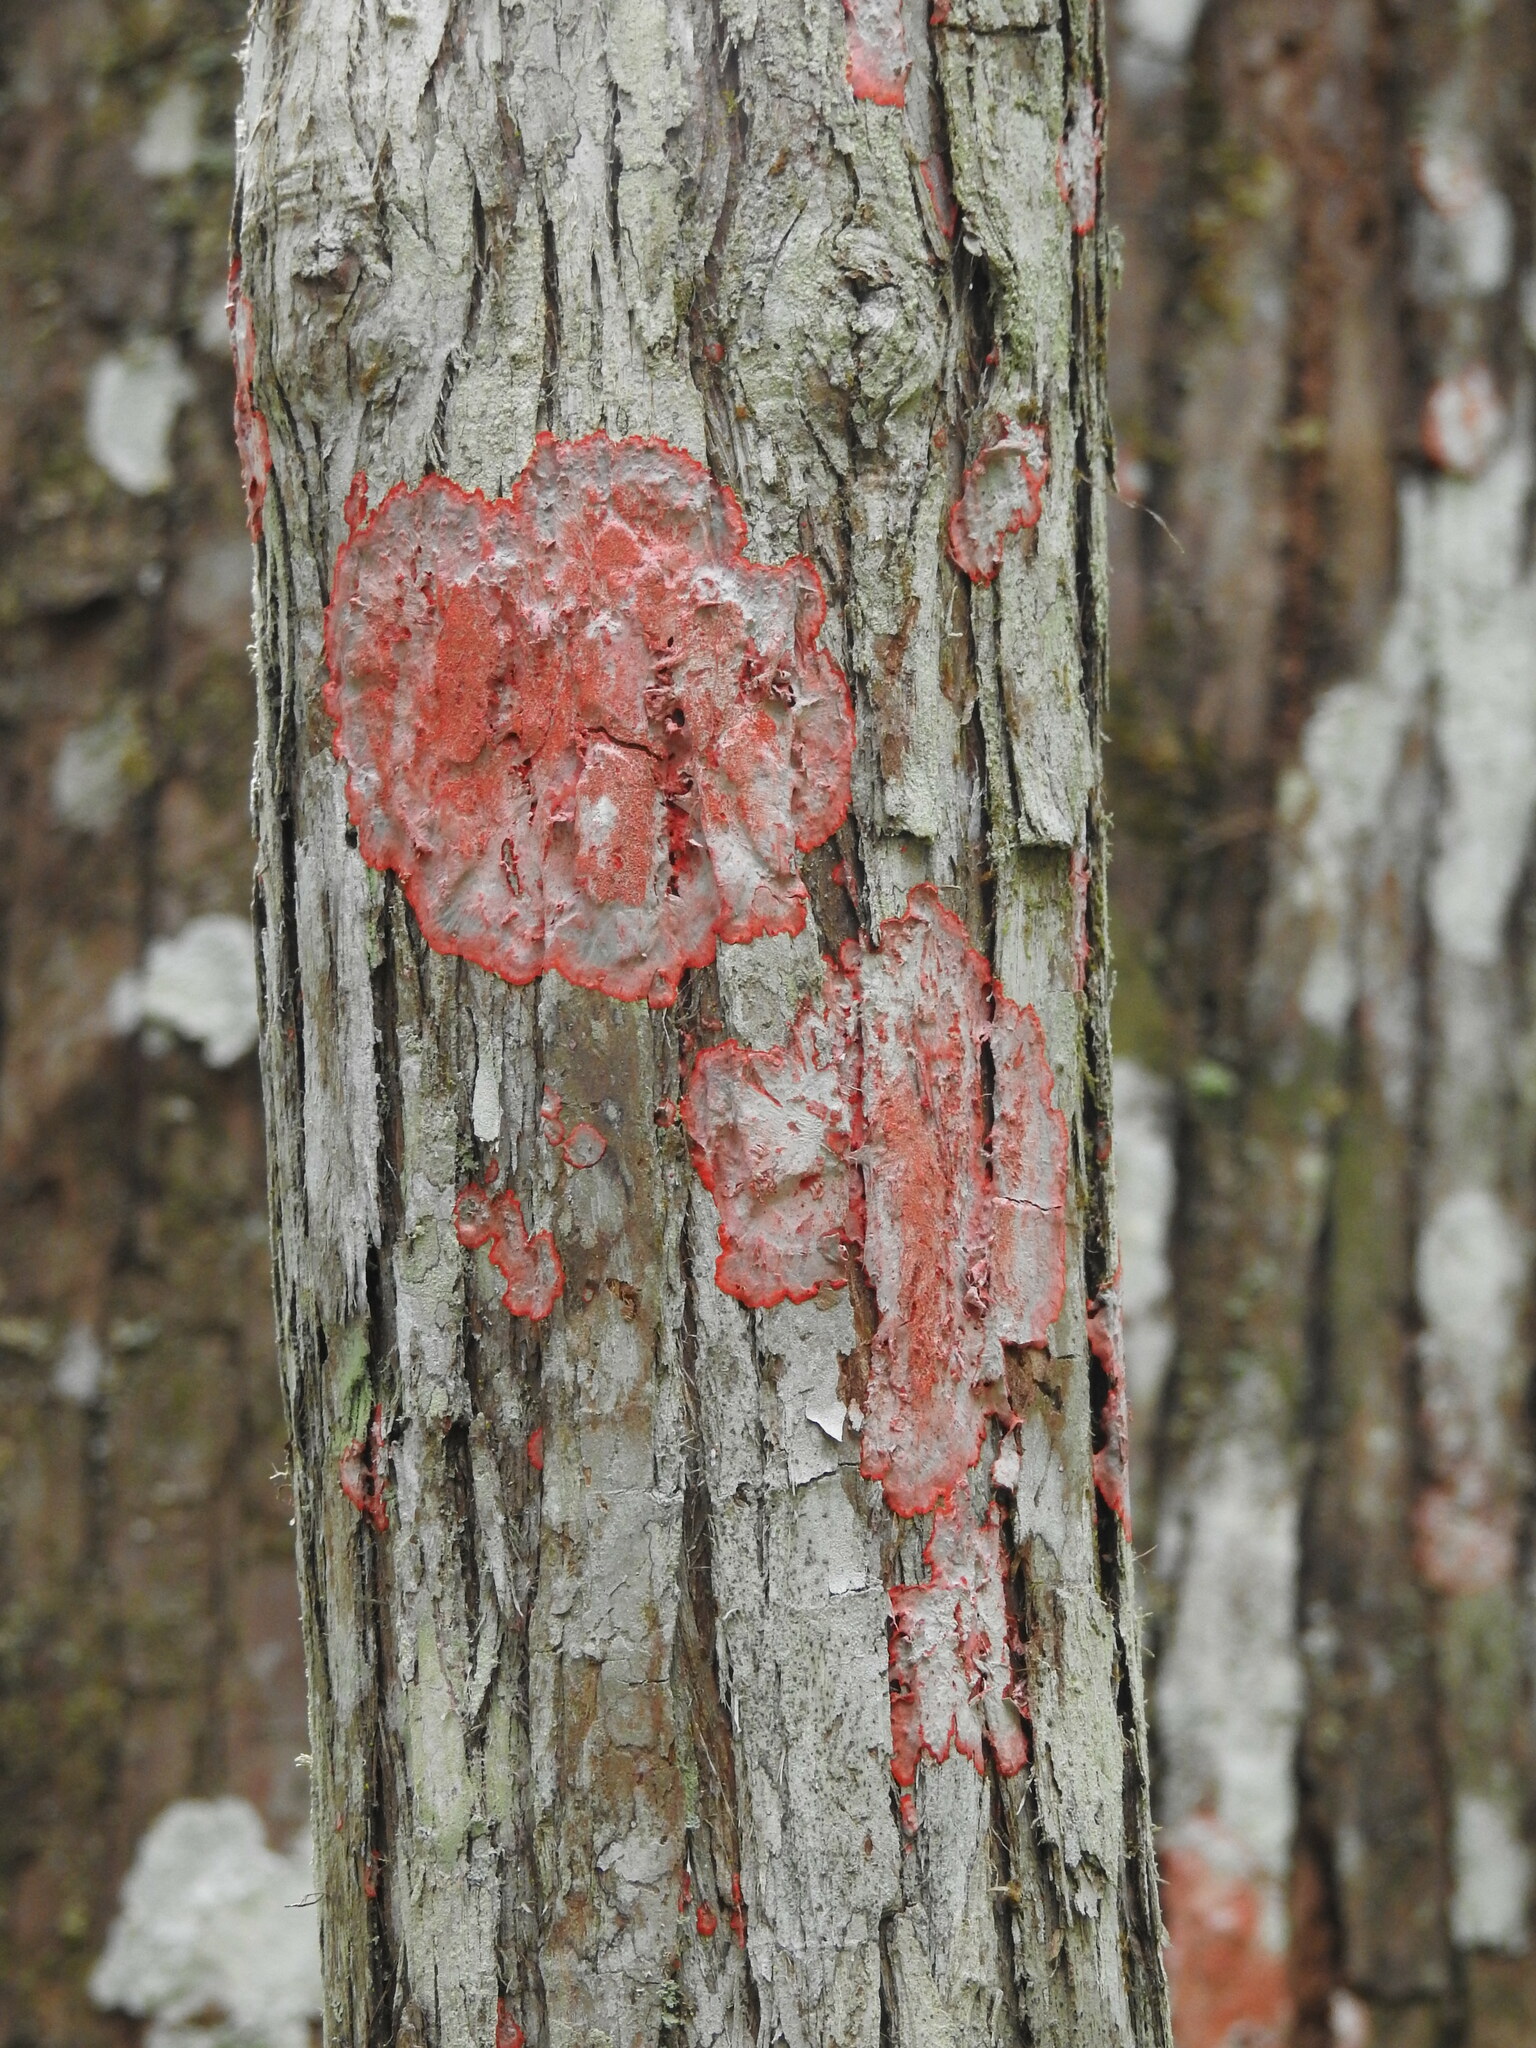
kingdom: Fungi
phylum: Ascomycota
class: Arthoniomycetes
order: Arthoniales
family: Arthoniaceae
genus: Herpothallon
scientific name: Herpothallon rubrocinctum
